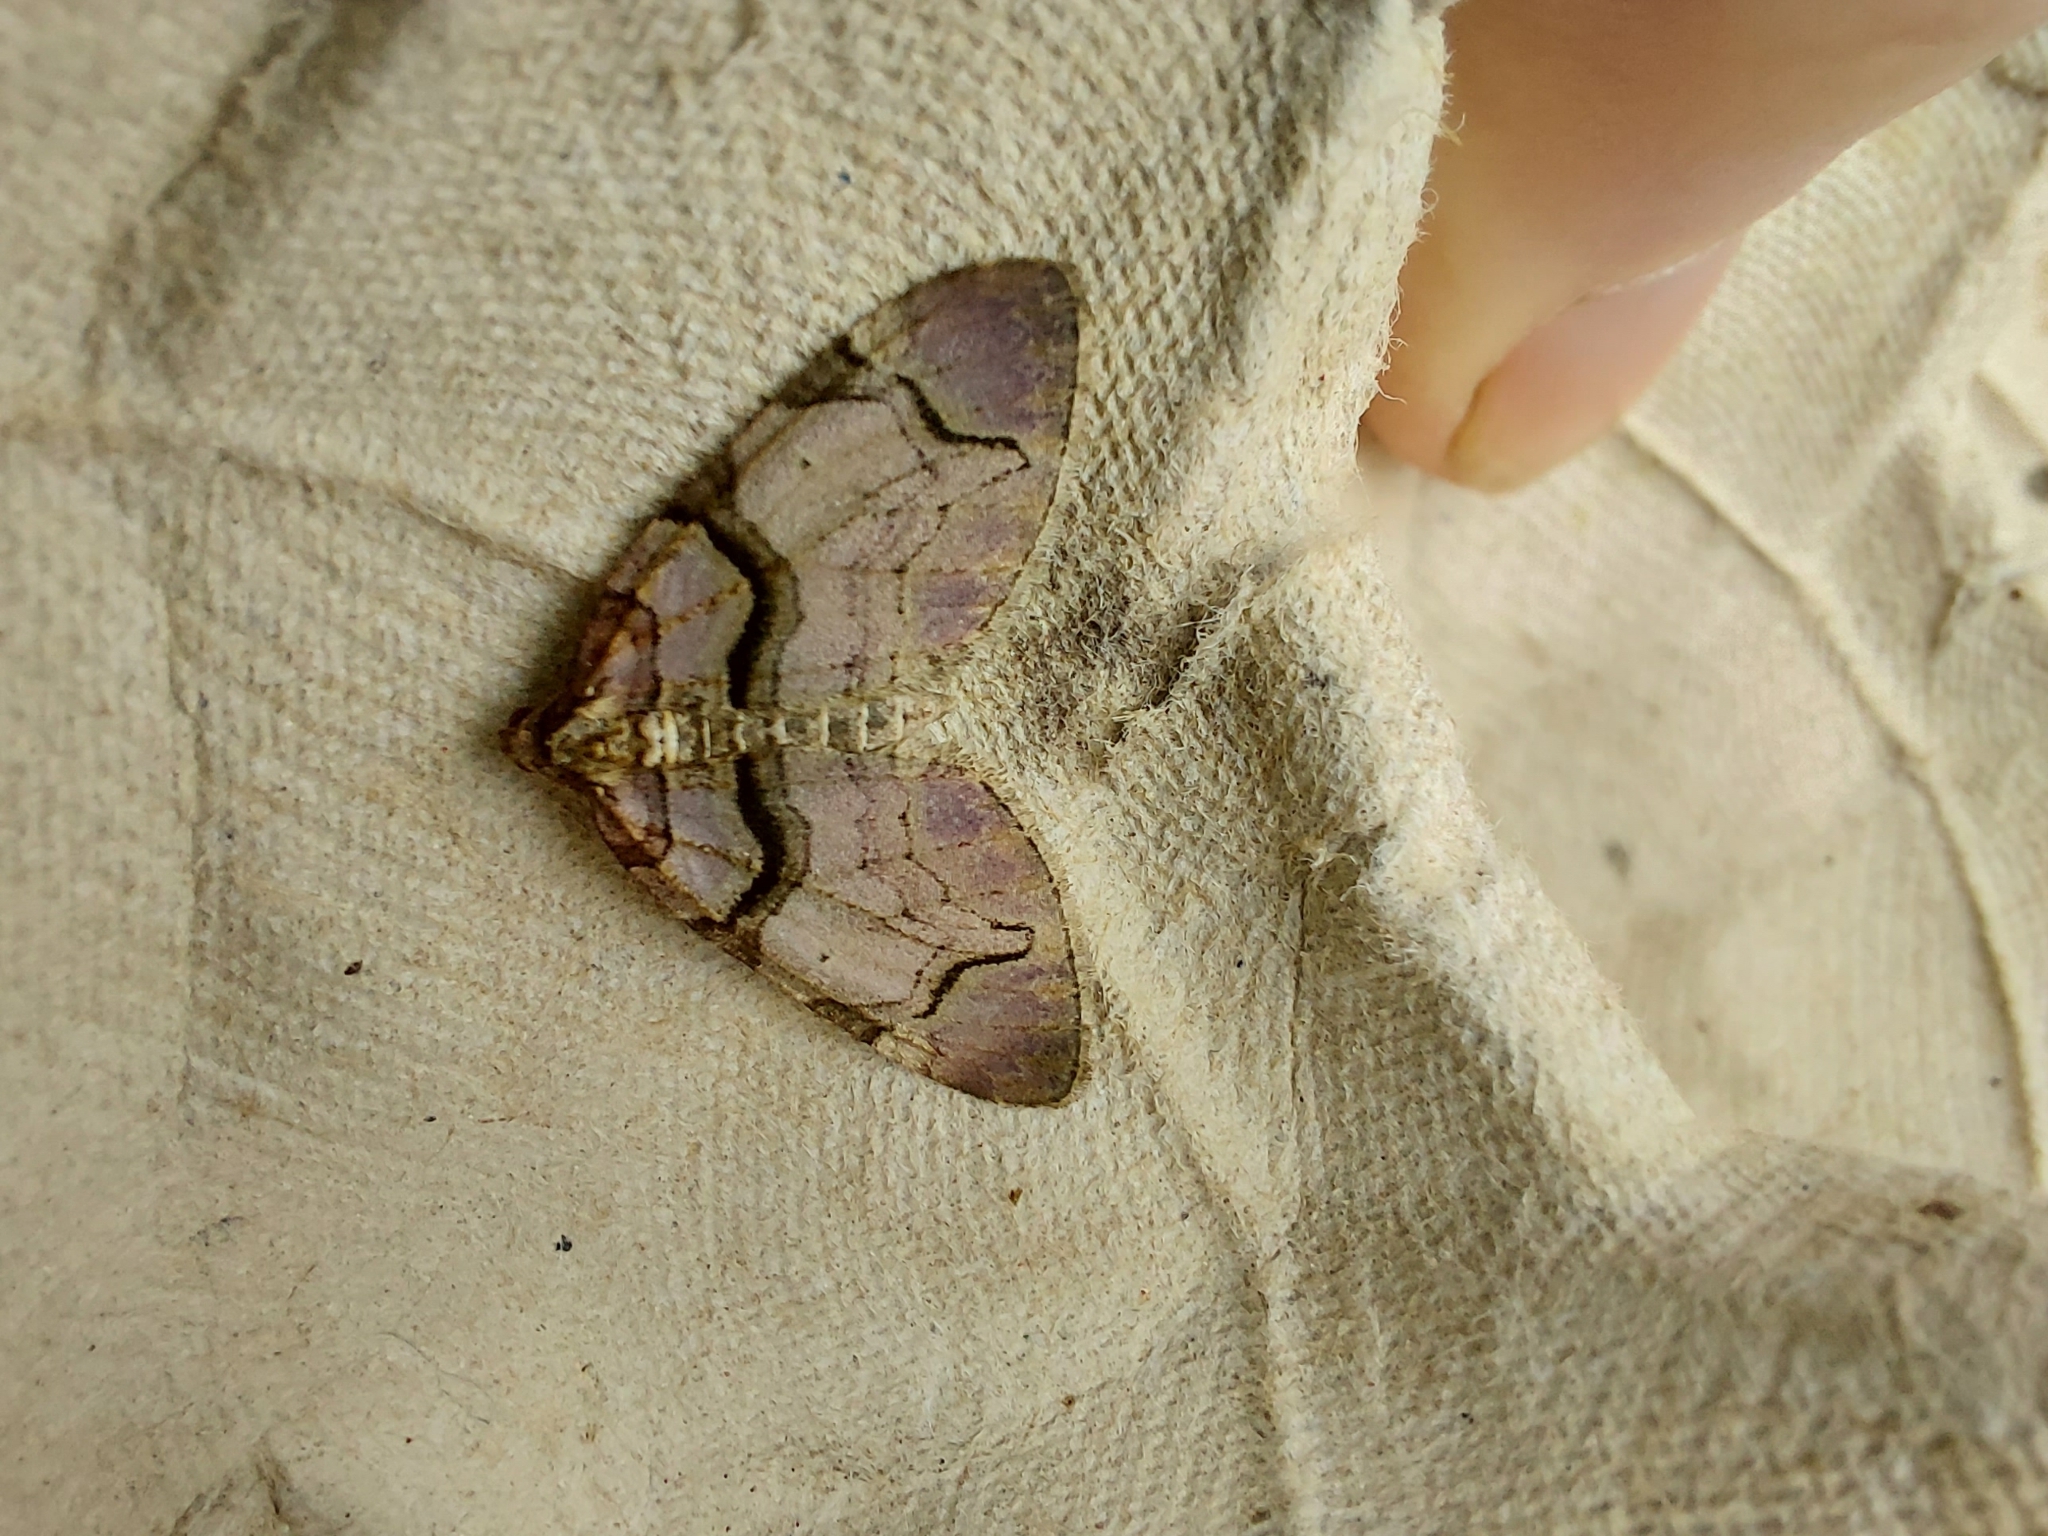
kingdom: Animalia
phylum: Arthropoda
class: Insecta
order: Lepidoptera
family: Geometridae
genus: Anticlea
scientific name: Anticlea derivata
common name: Streamer
